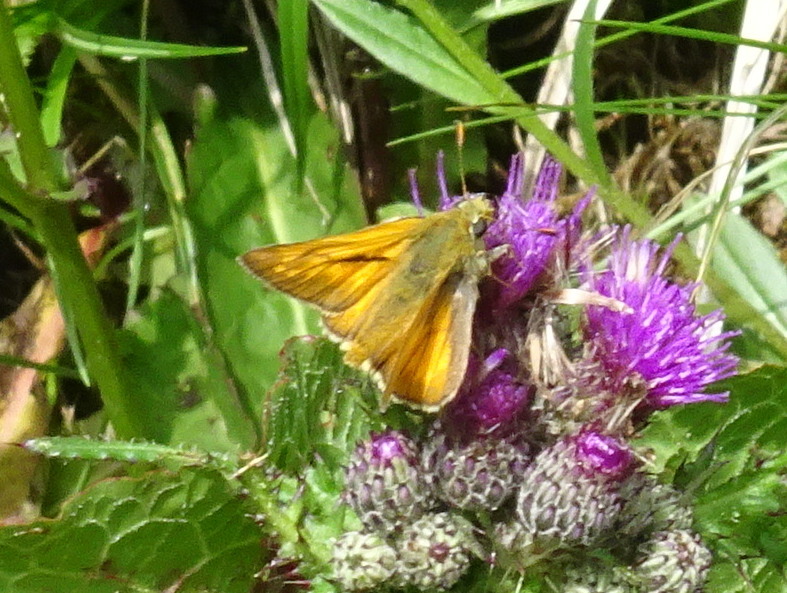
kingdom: Animalia
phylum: Arthropoda
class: Insecta
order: Lepidoptera
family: Hesperiidae
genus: Ochlodes
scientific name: Ochlodes venata
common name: Large skipper
